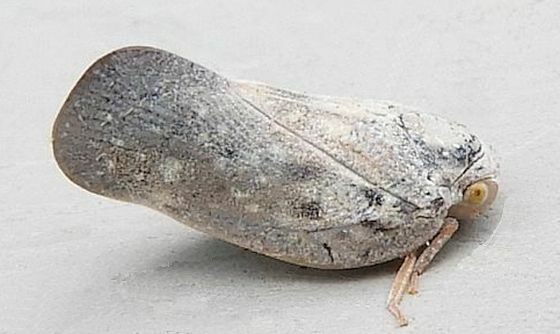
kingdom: Animalia
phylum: Arthropoda
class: Insecta
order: Hemiptera
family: Flatidae
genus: Metcalfa
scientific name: Metcalfa pruinosa
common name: Citrus flatid planthopper
